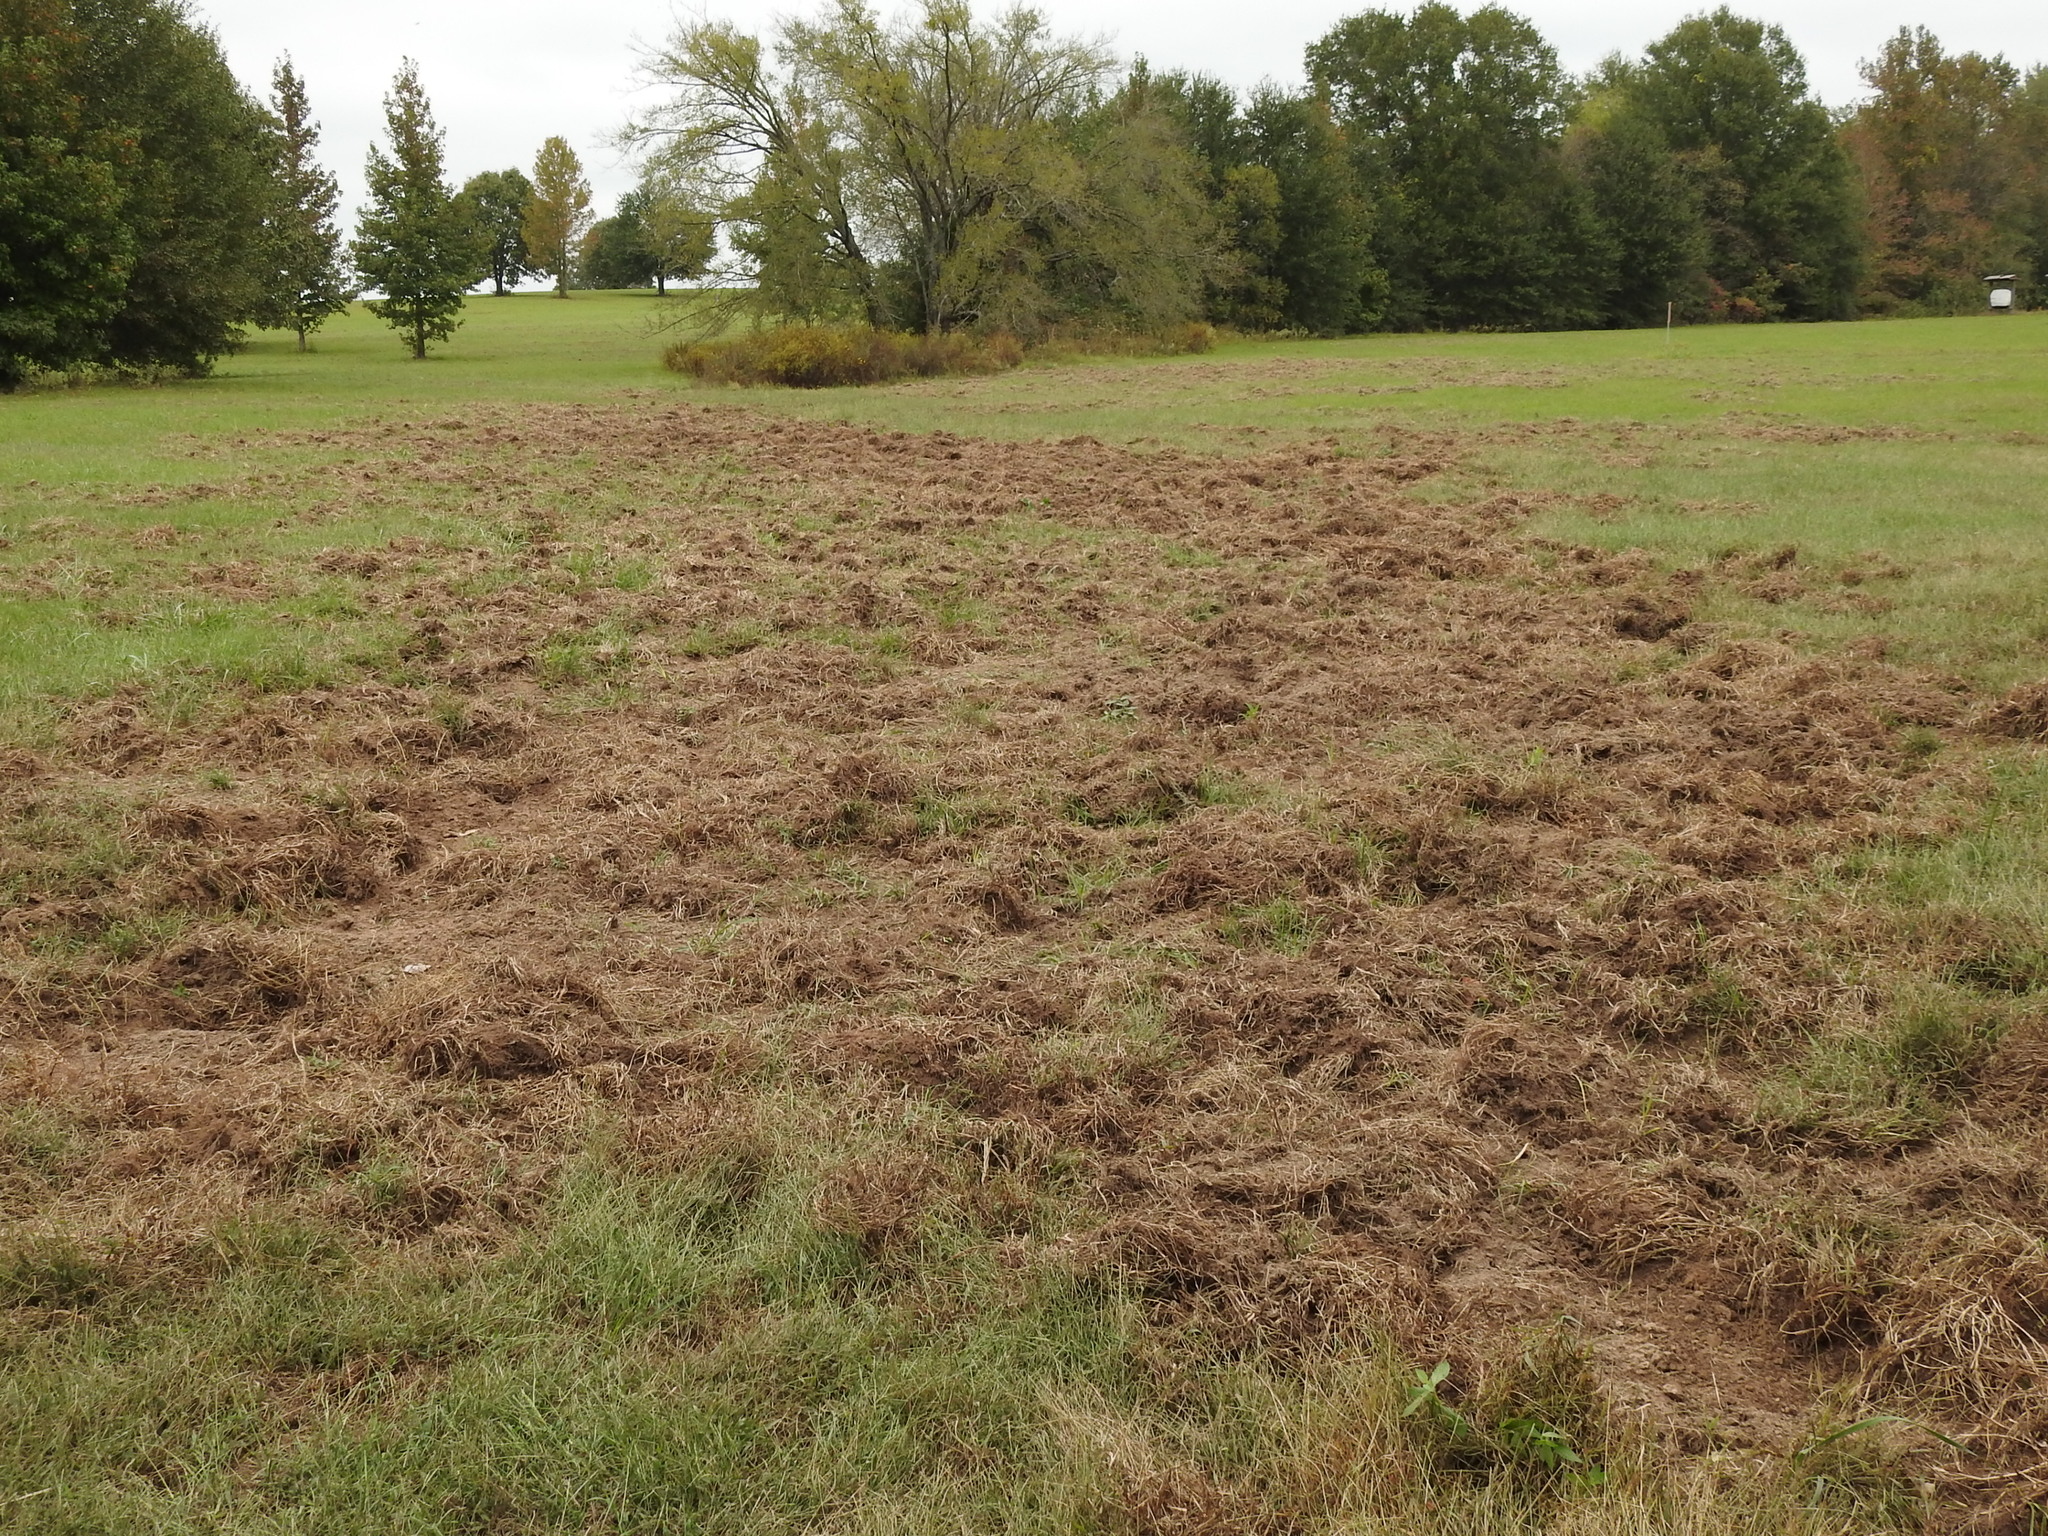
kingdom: Animalia
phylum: Chordata
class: Mammalia
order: Artiodactyla
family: Suidae
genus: Sus
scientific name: Sus scrofa
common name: Wild boar
